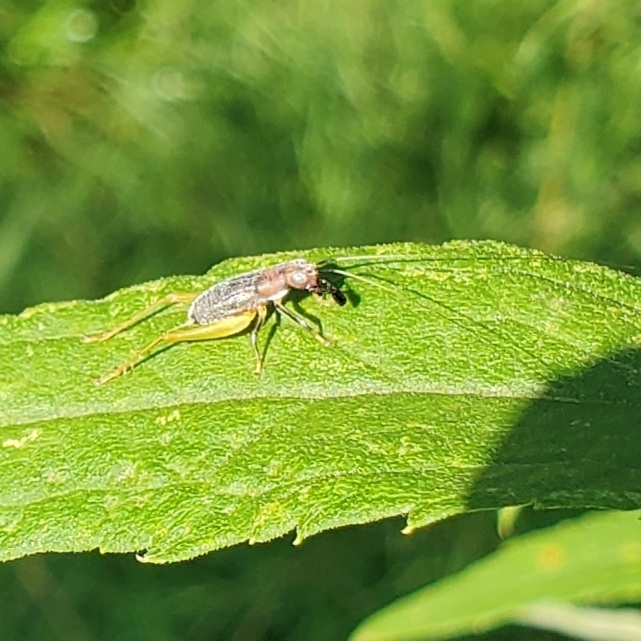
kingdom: Animalia
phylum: Arthropoda
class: Insecta
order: Orthoptera
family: Trigonidiidae
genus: Phyllopalpus
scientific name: Phyllopalpus pulchellus
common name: Handsome trig
